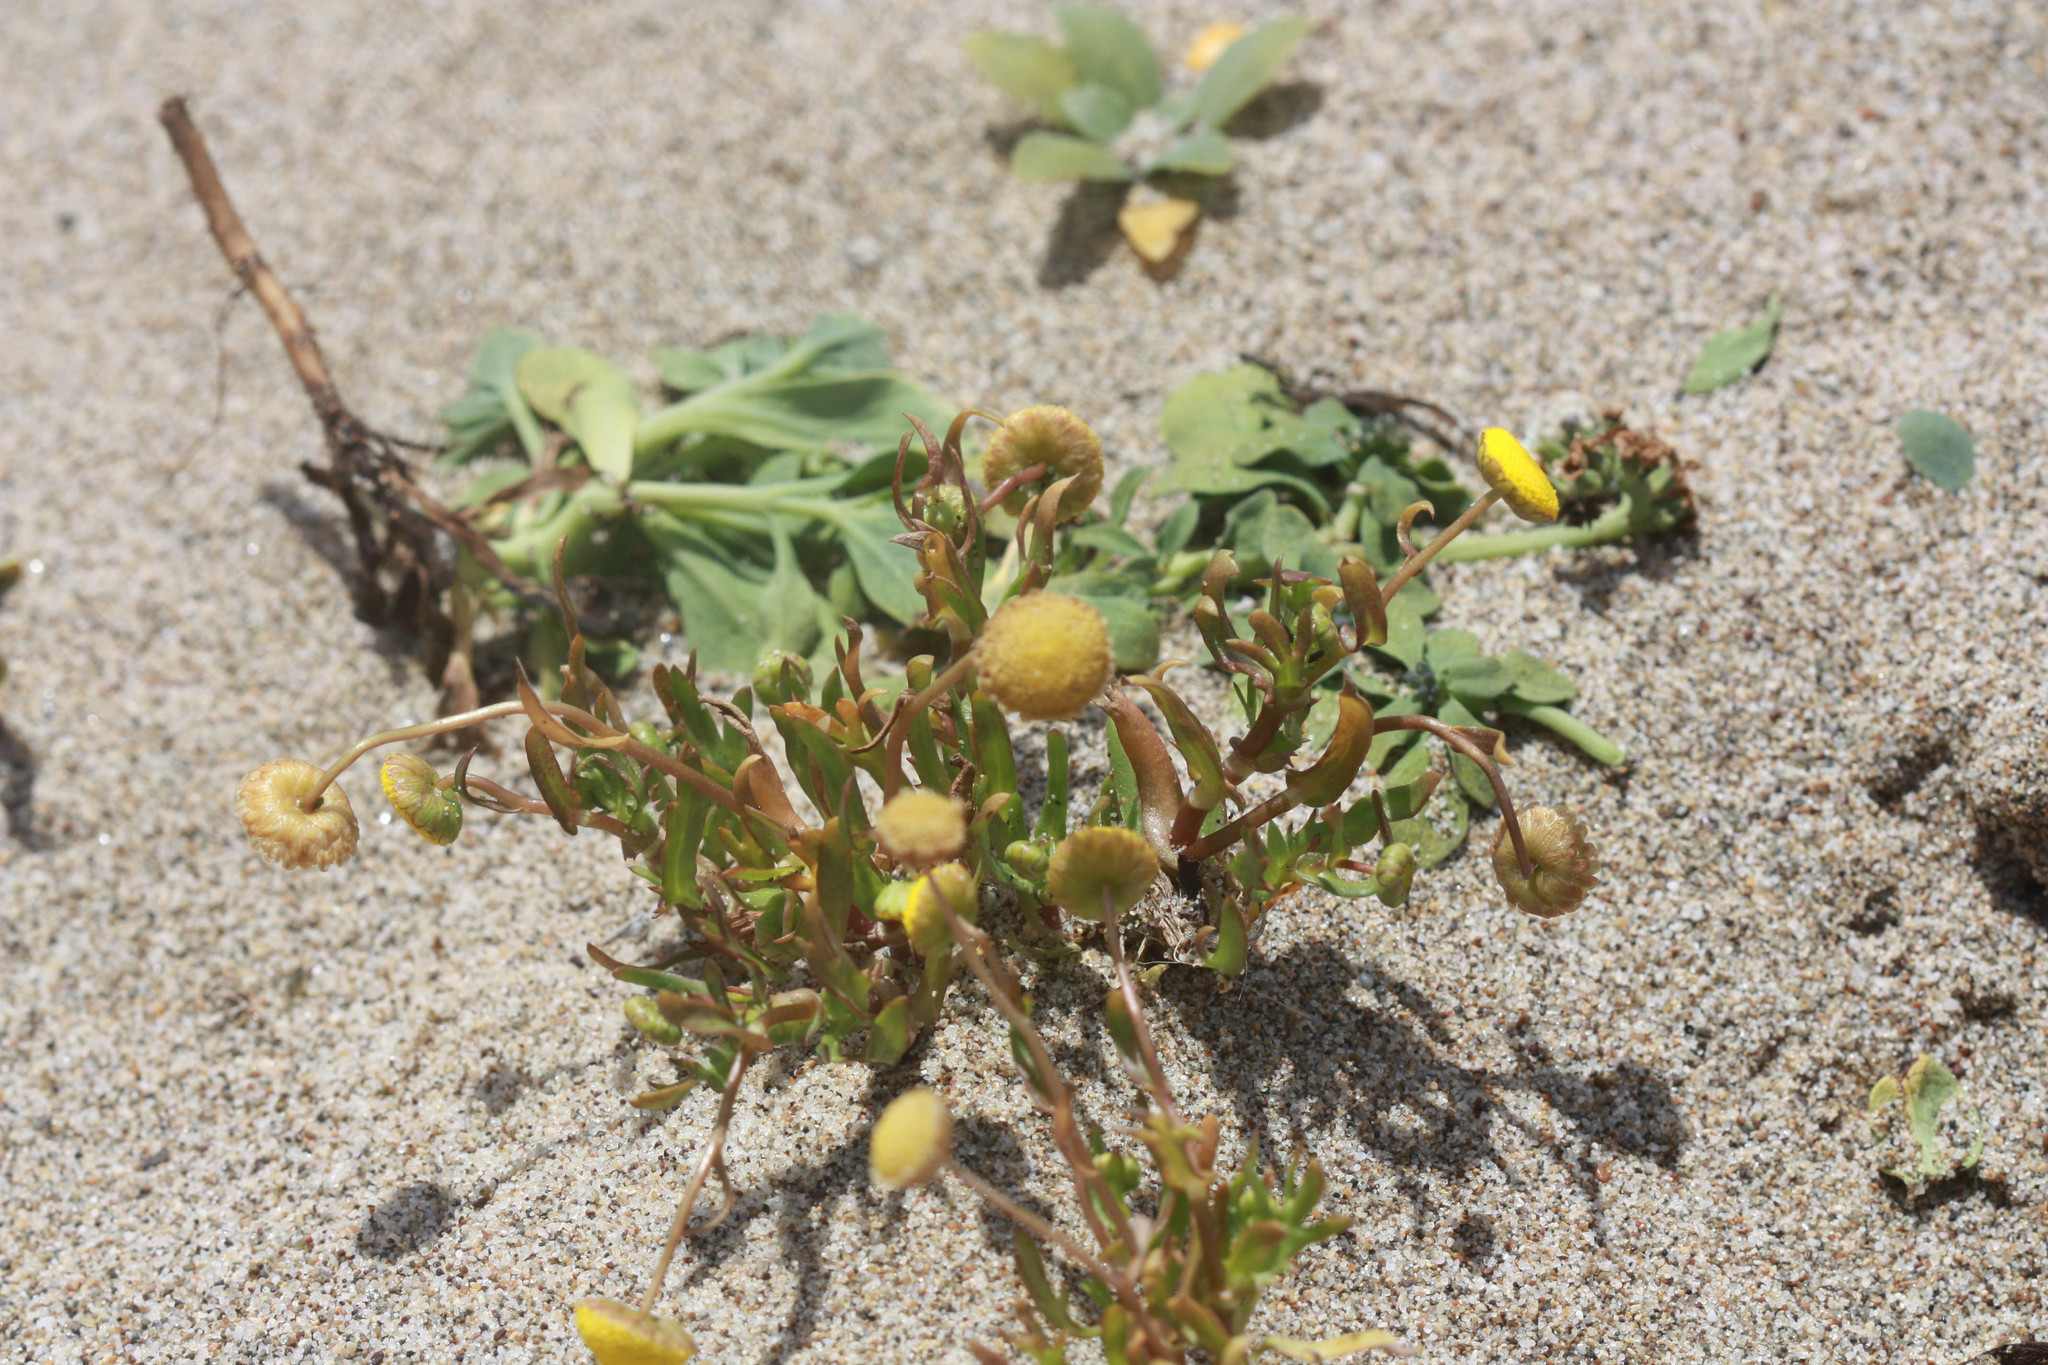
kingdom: Plantae
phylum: Tracheophyta
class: Magnoliopsida
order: Asterales
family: Asteraceae
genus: Cotula
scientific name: Cotula coronopifolia
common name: Buttonweed
